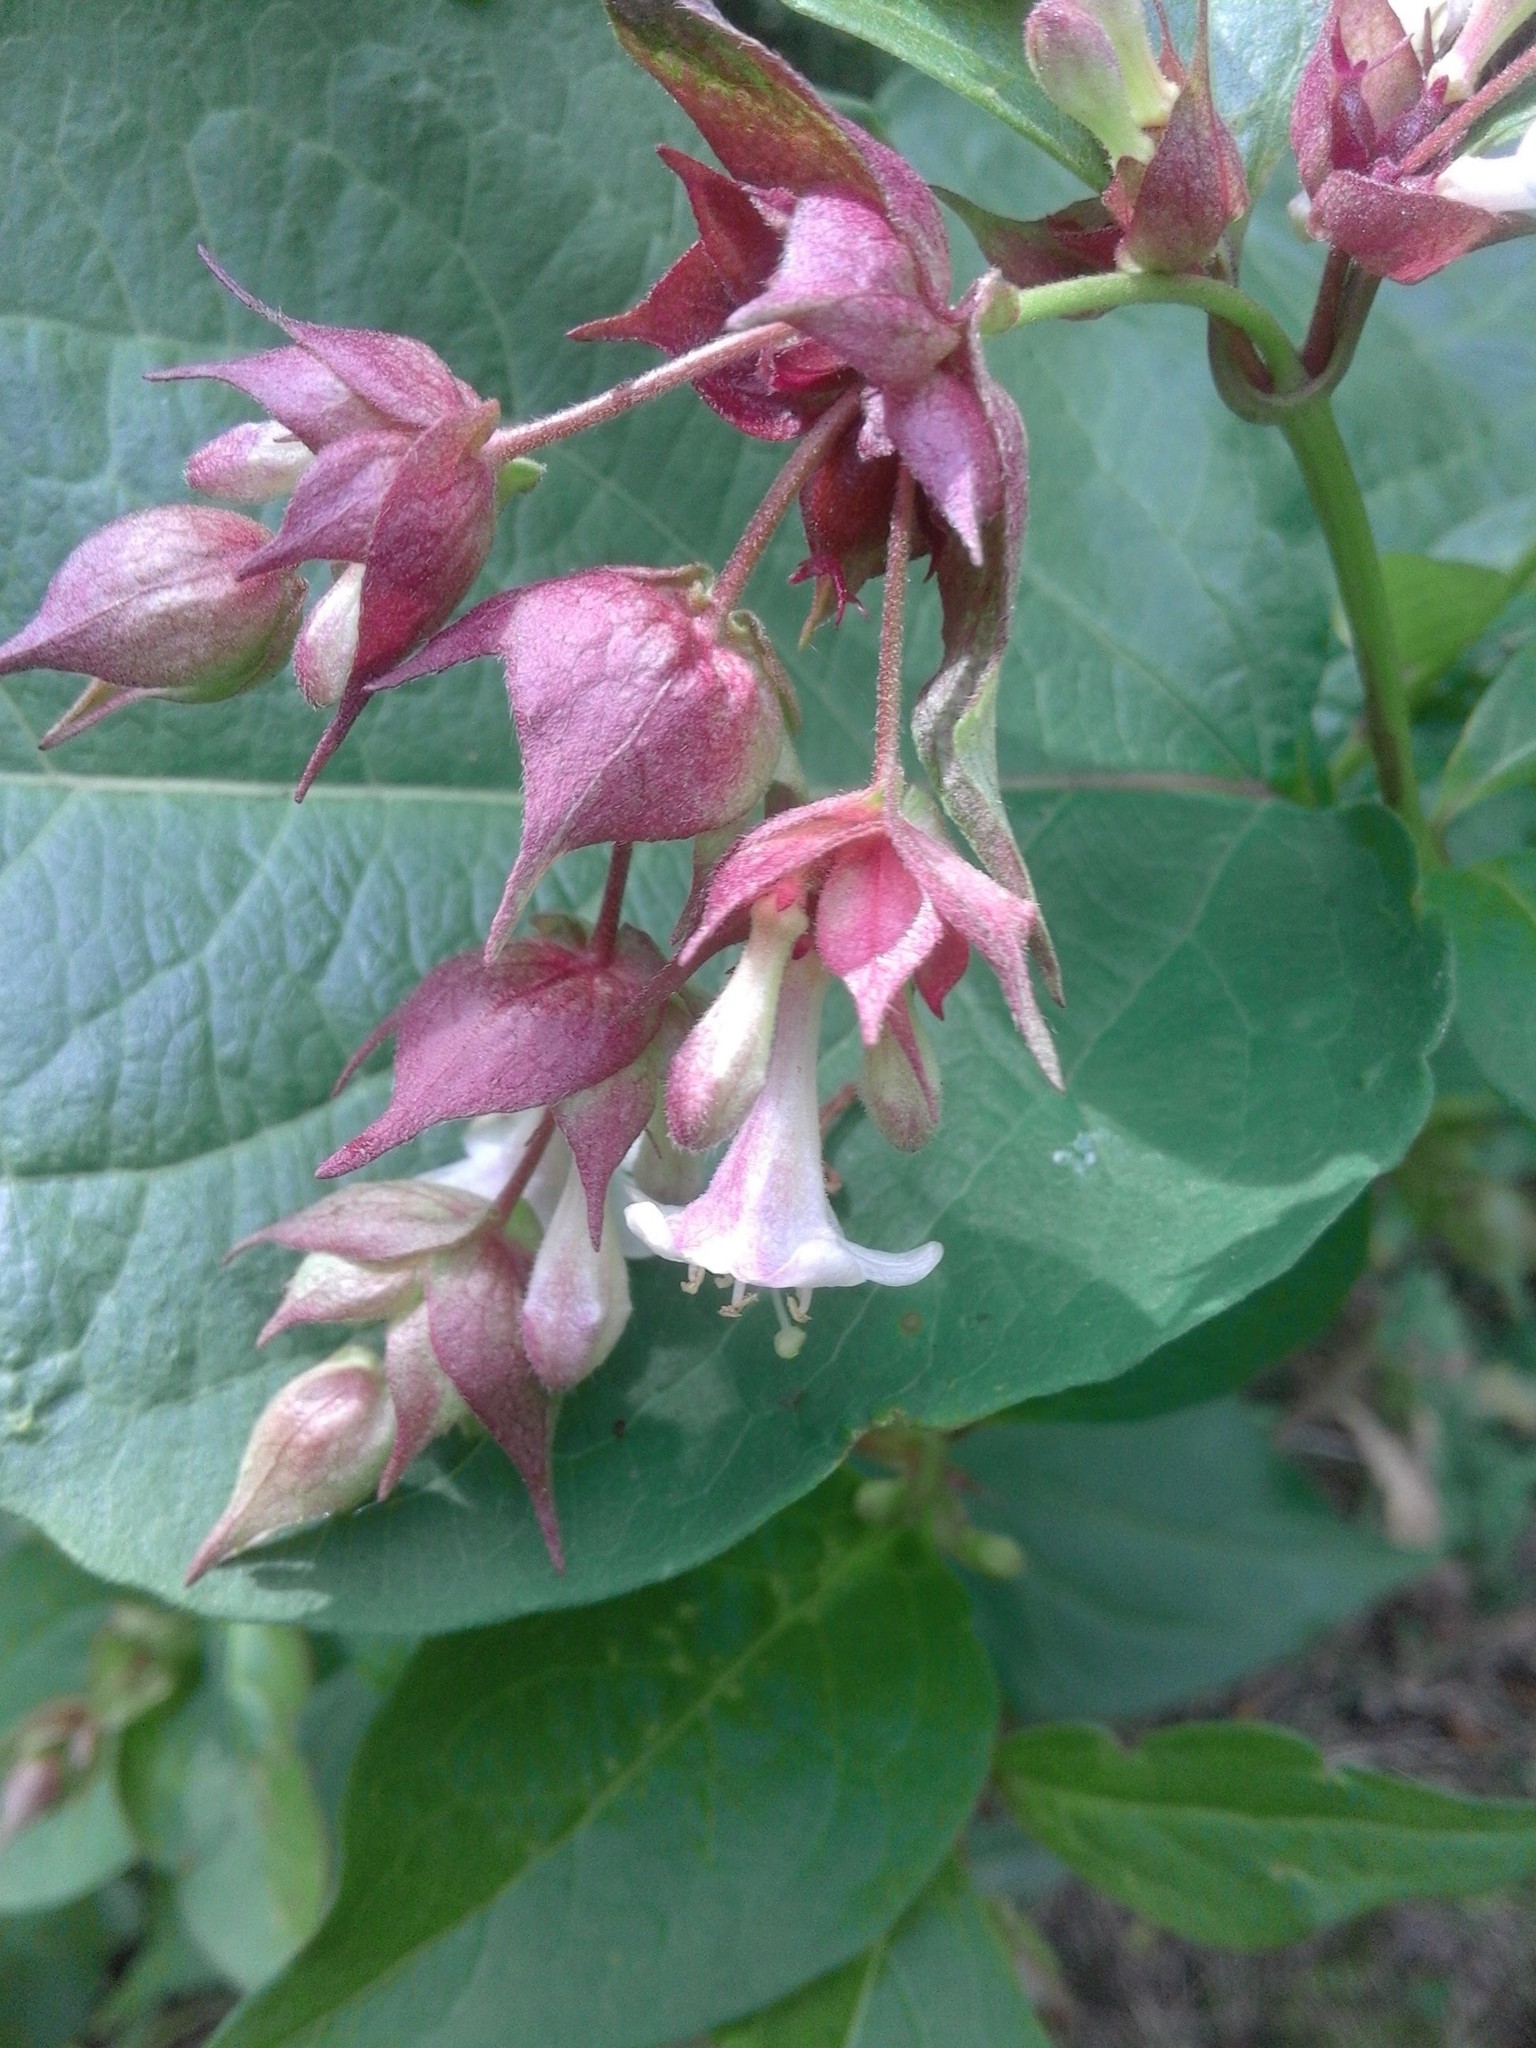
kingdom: Plantae
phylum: Tracheophyta
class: Magnoliopsida
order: Dipsacales
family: Caprifoliaceae
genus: Leycesteria
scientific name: Leycesteria formosa
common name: Himalayan honeysuckle
